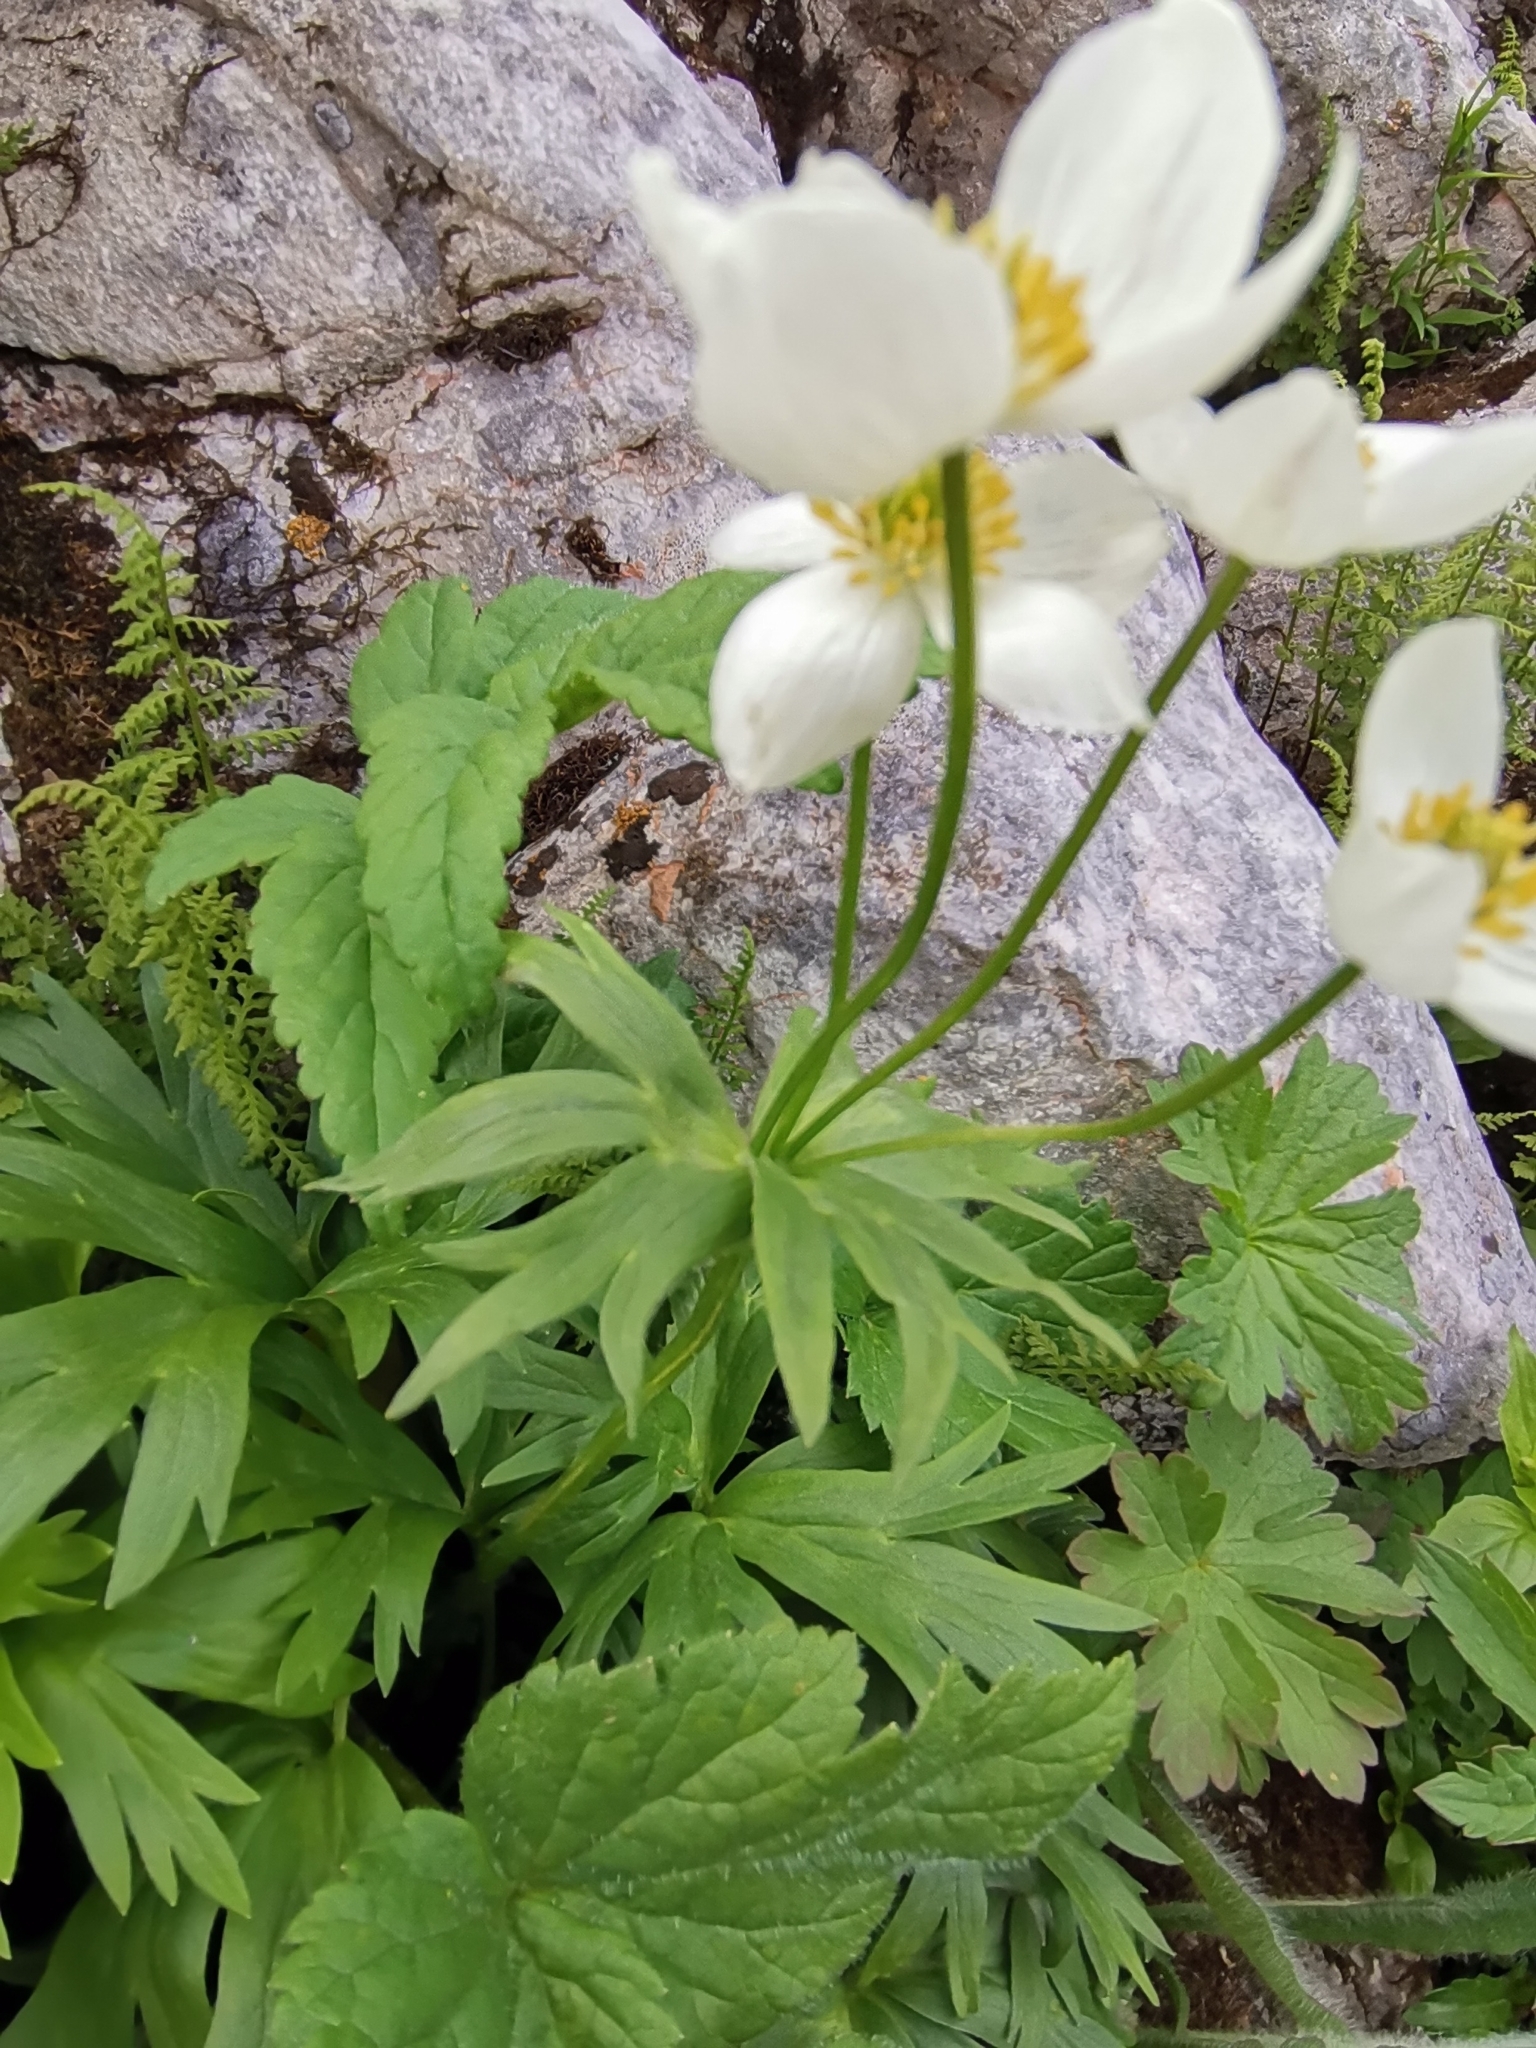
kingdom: Plantae
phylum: Tracheophyta
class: Magnoliopsida
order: Ranunculales
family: Ranunculaceae
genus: Anemonastrum
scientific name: Anemonastrum narcissiflorum
